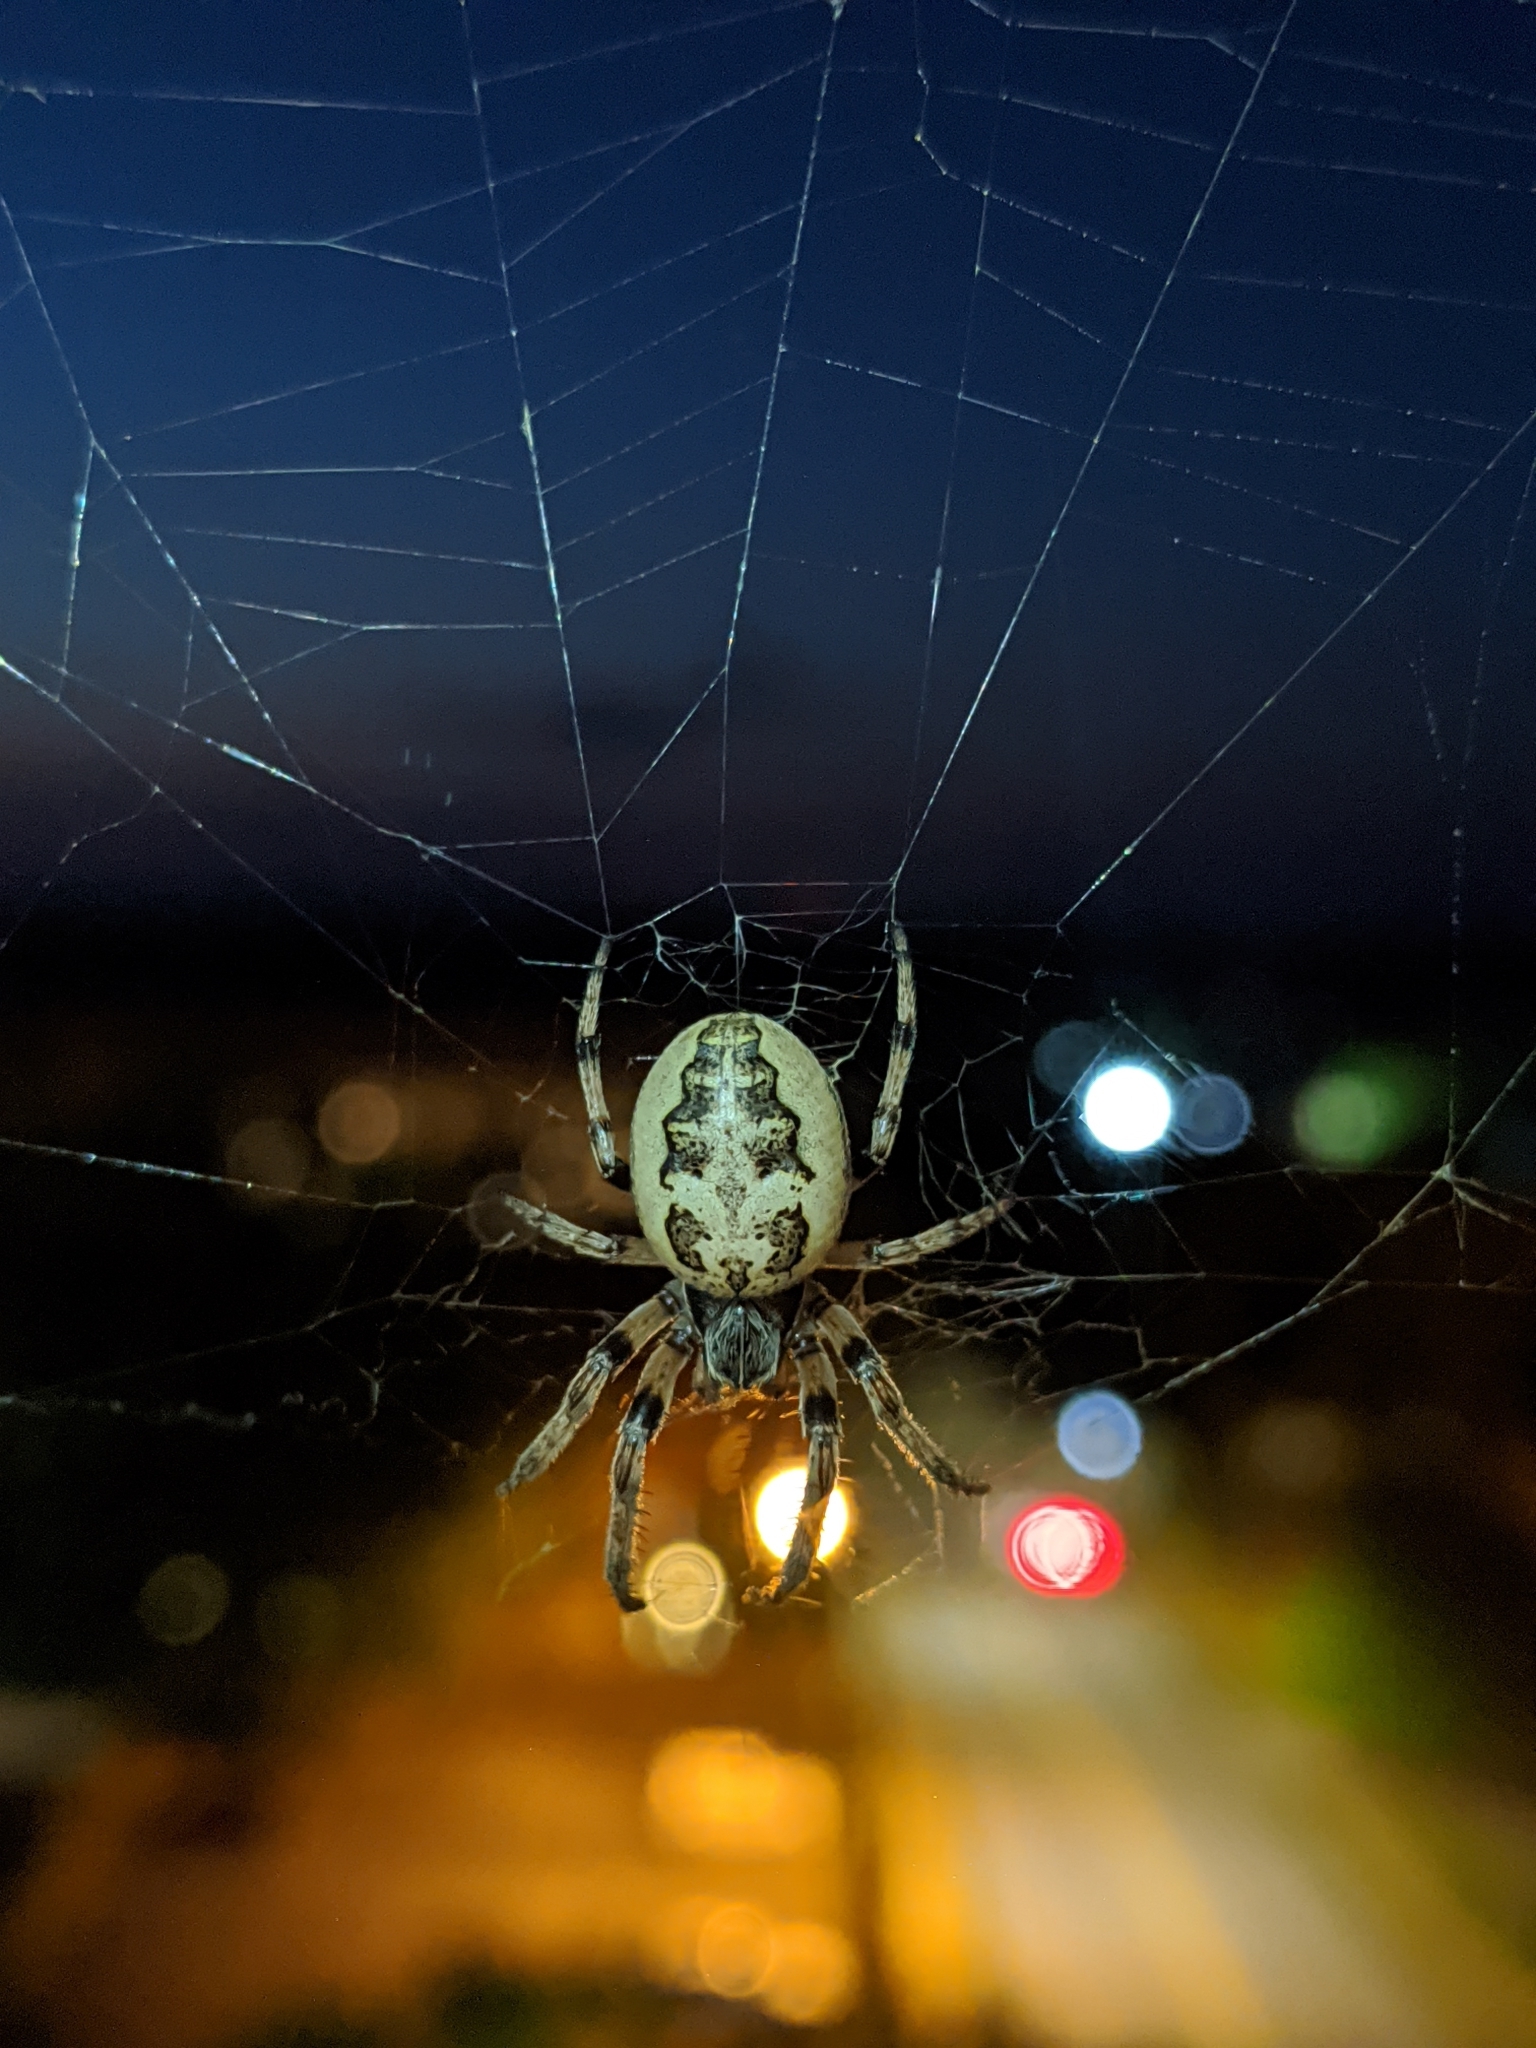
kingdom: Animalia
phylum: Arthropoda
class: Arachnida
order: Araneae
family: Araneidae
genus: Larinioides
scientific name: Larinioides cornutus
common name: Furrow orbweaver
